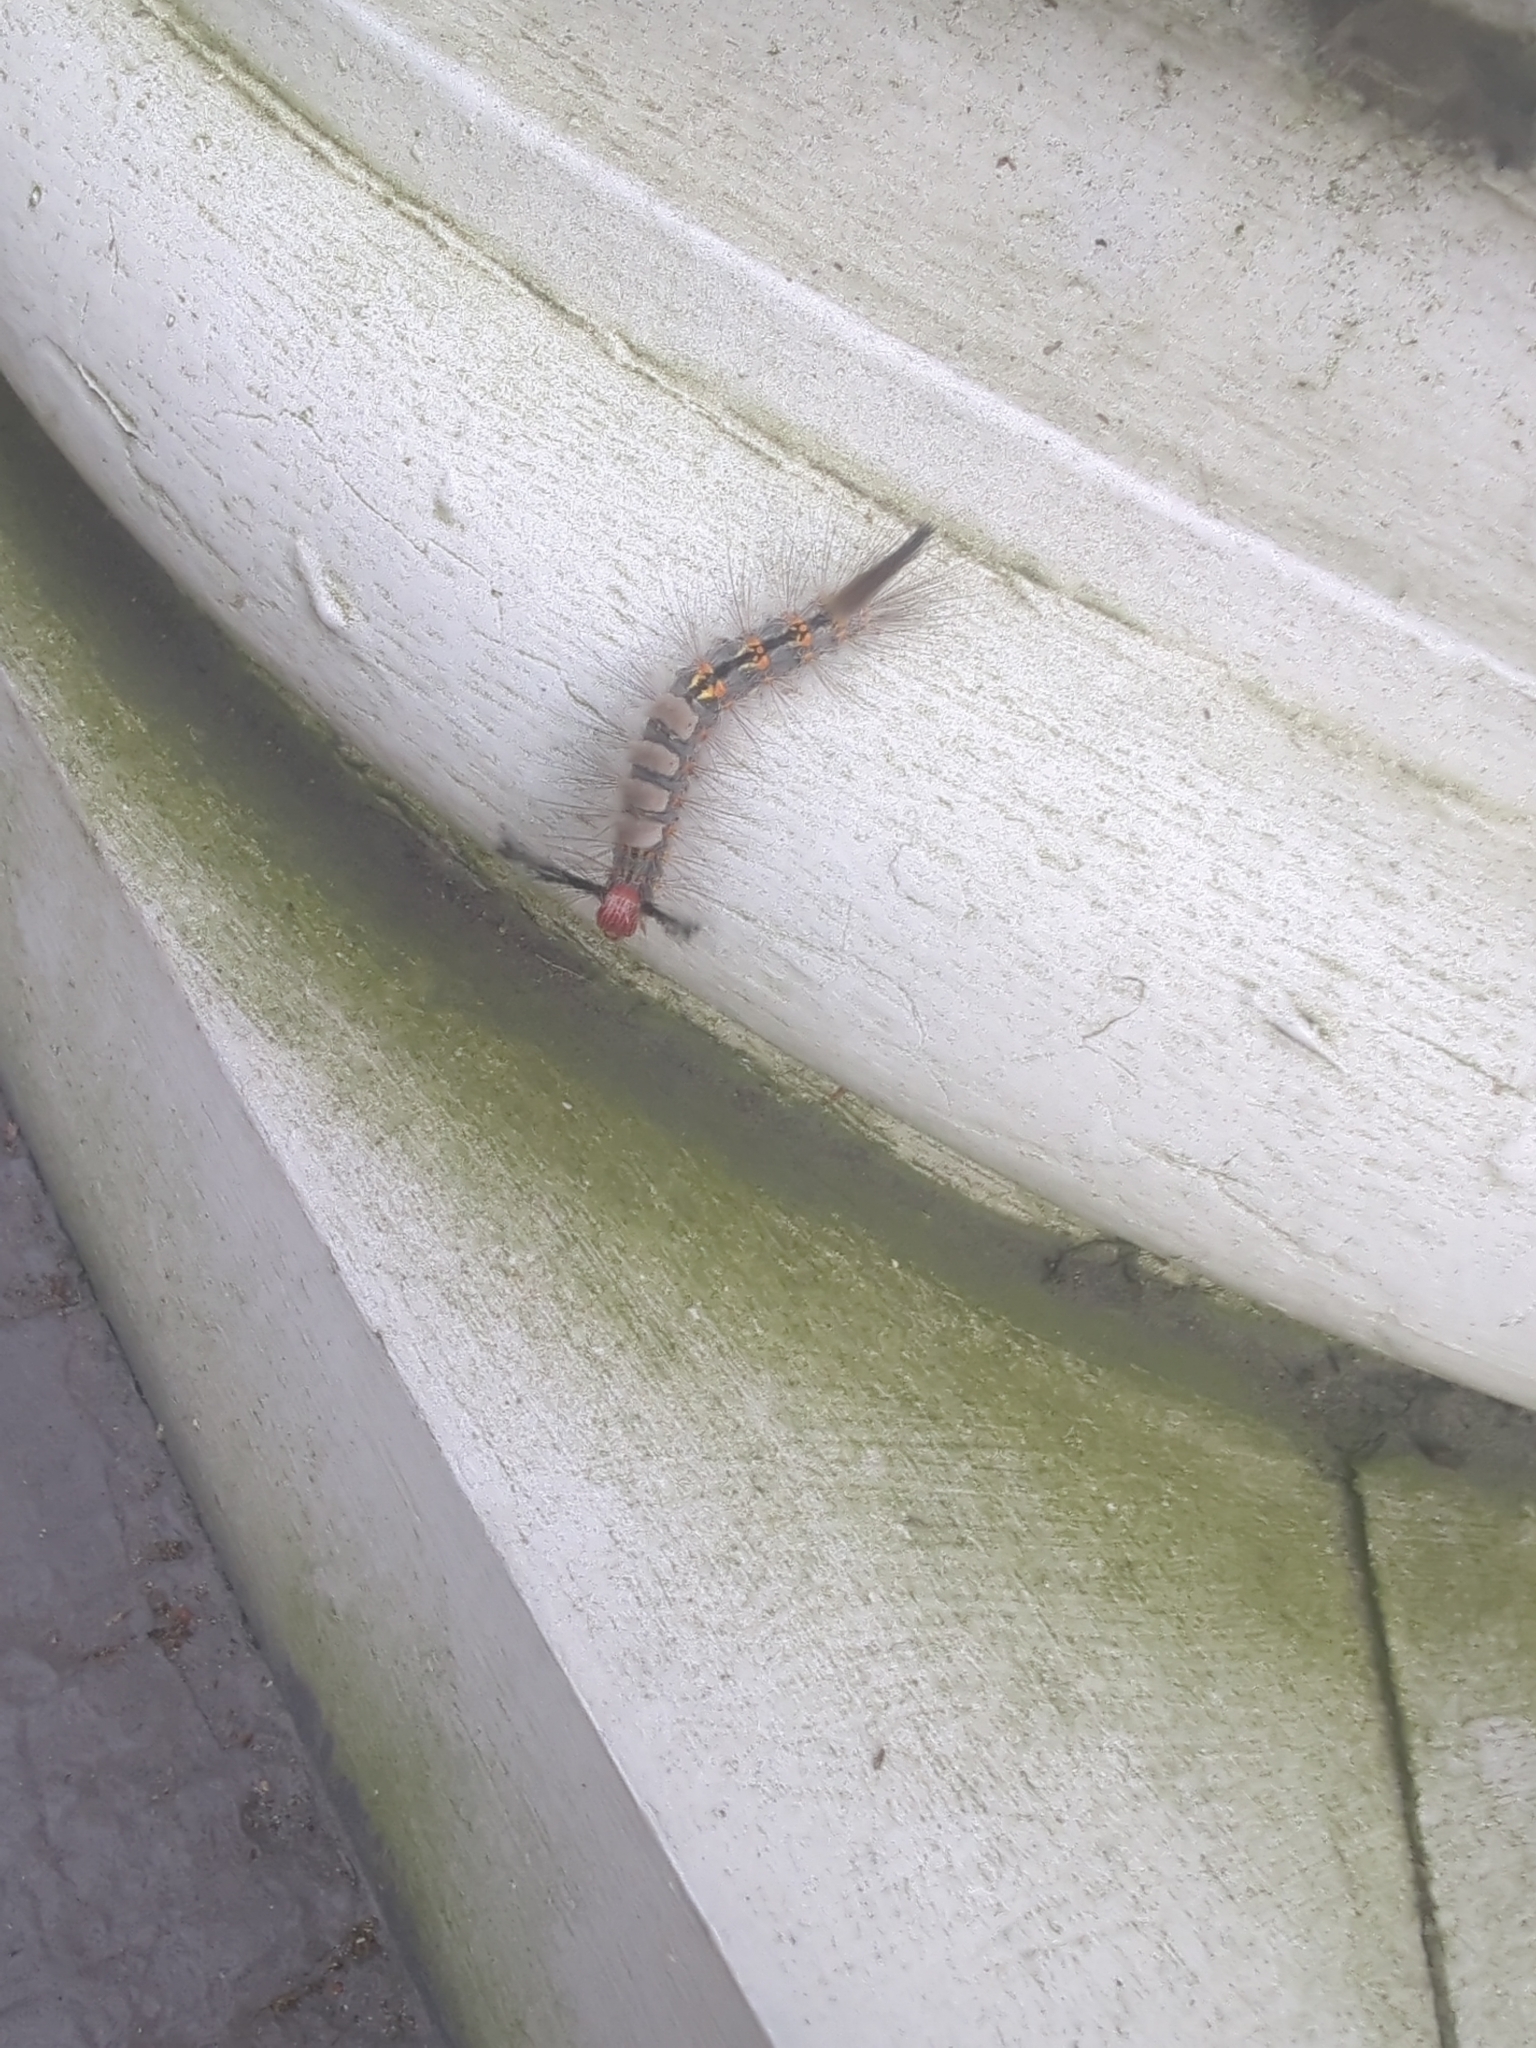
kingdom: Animalia
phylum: Arthropoda
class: Insecta
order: Lepidoptera
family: Erebidae
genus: Orgyia
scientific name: Orgyia detrita
